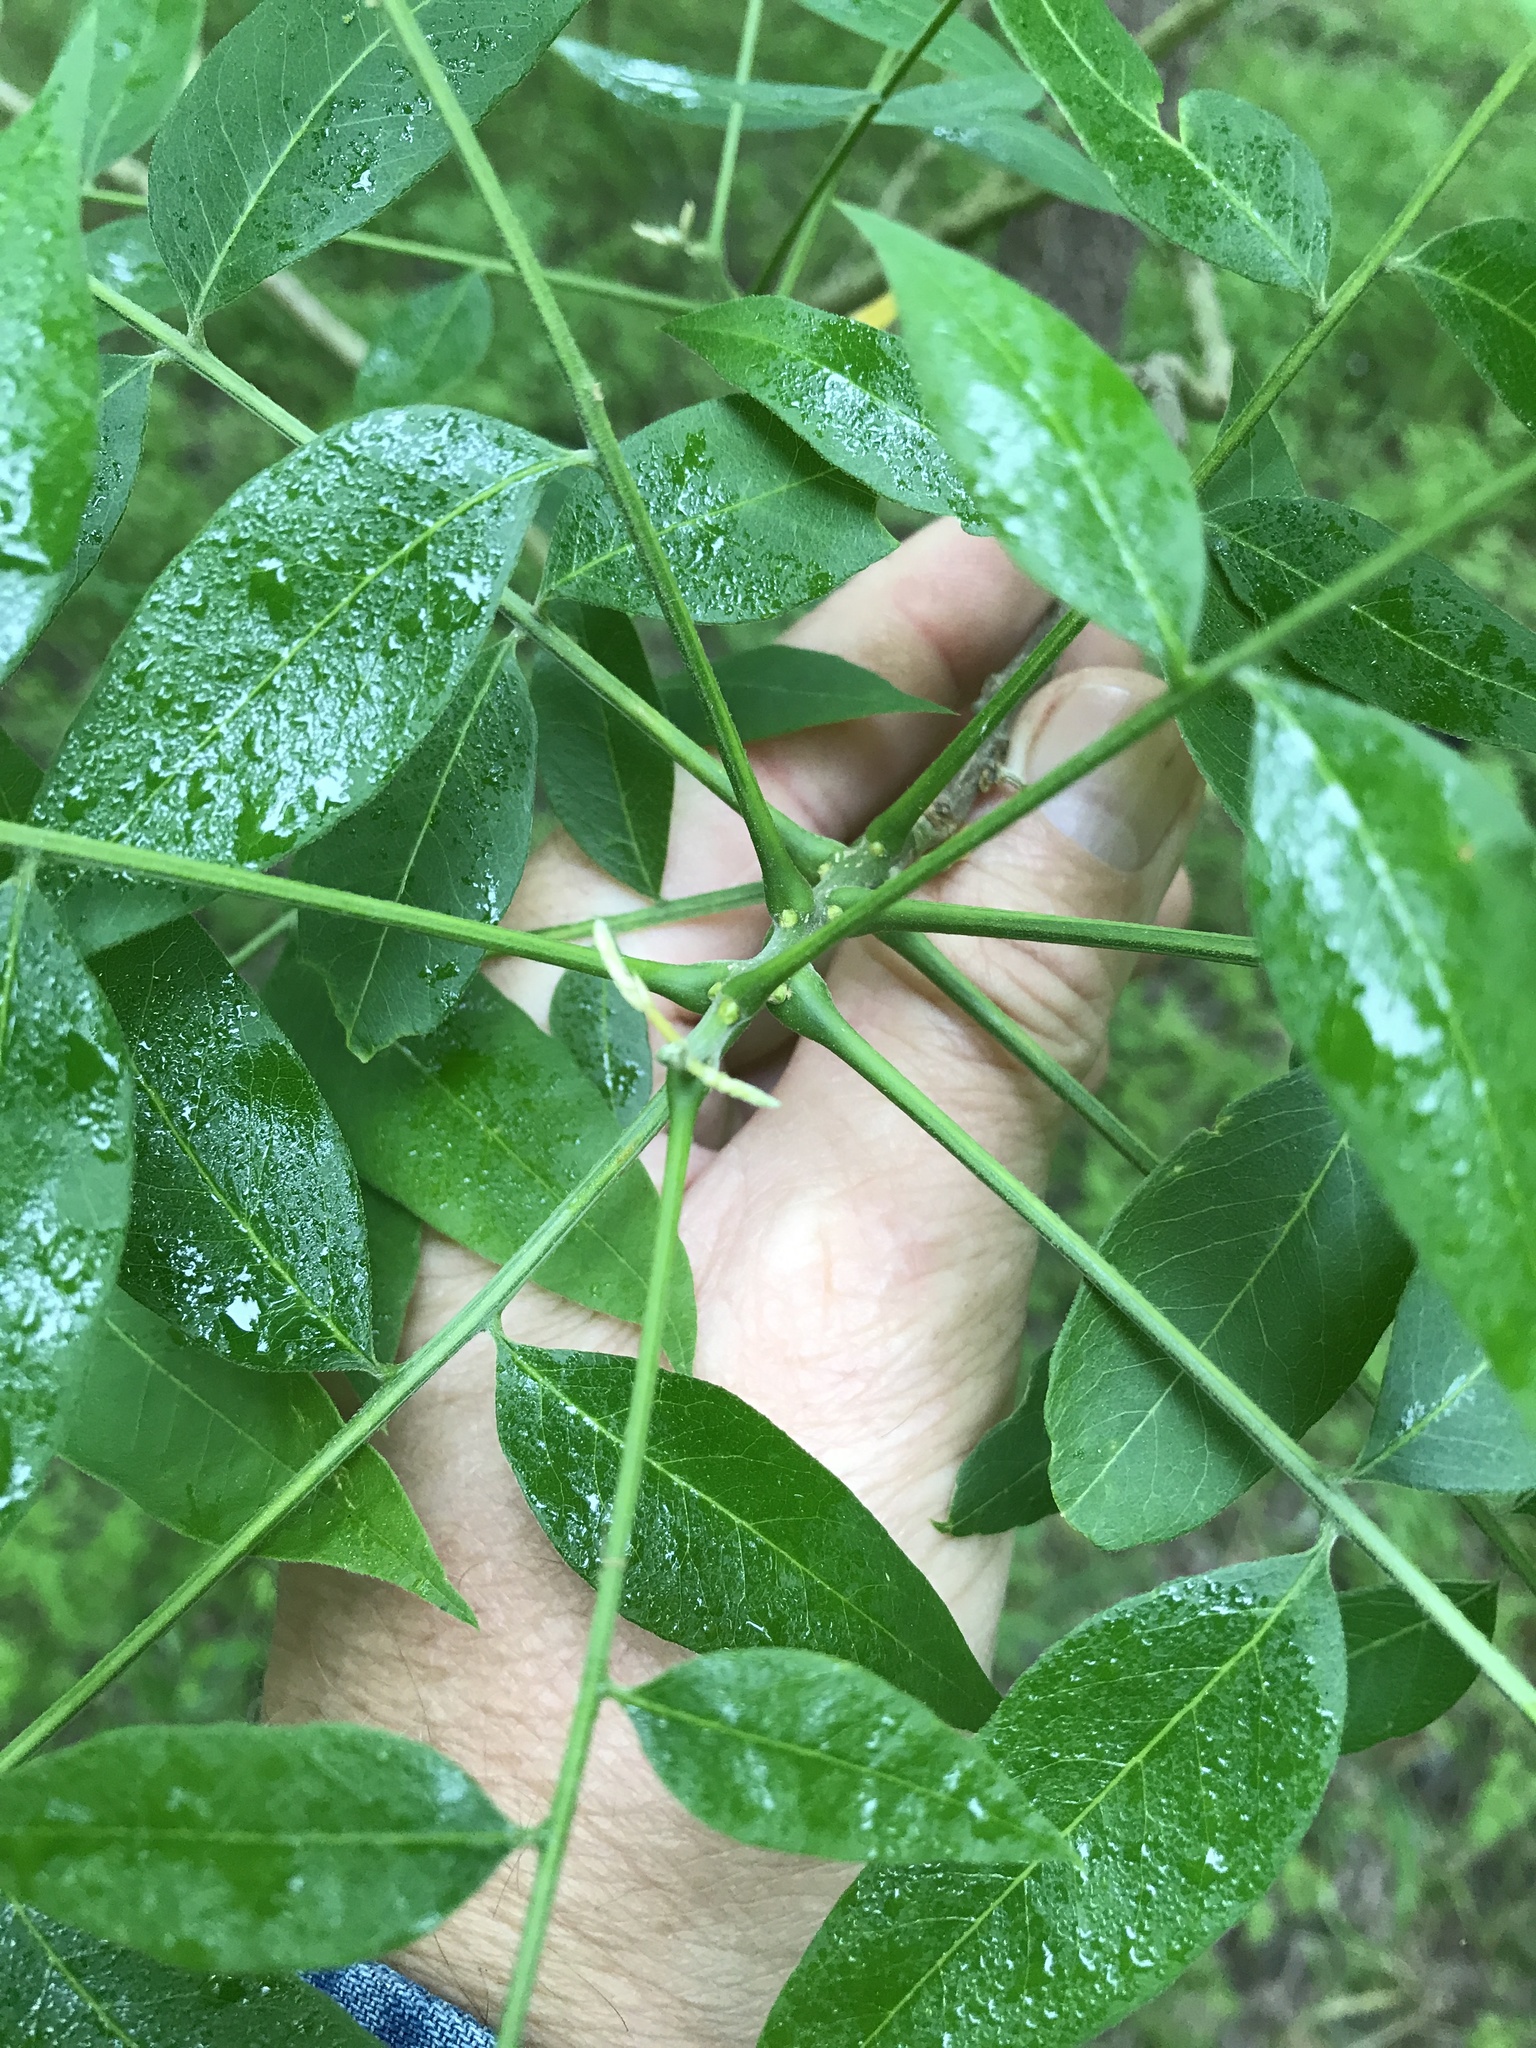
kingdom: Plantae
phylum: Tracheophyta
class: Magnoliopsida
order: Sapindales
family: Sapindaceae
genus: Sapindus
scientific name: Sapindus drummondii
